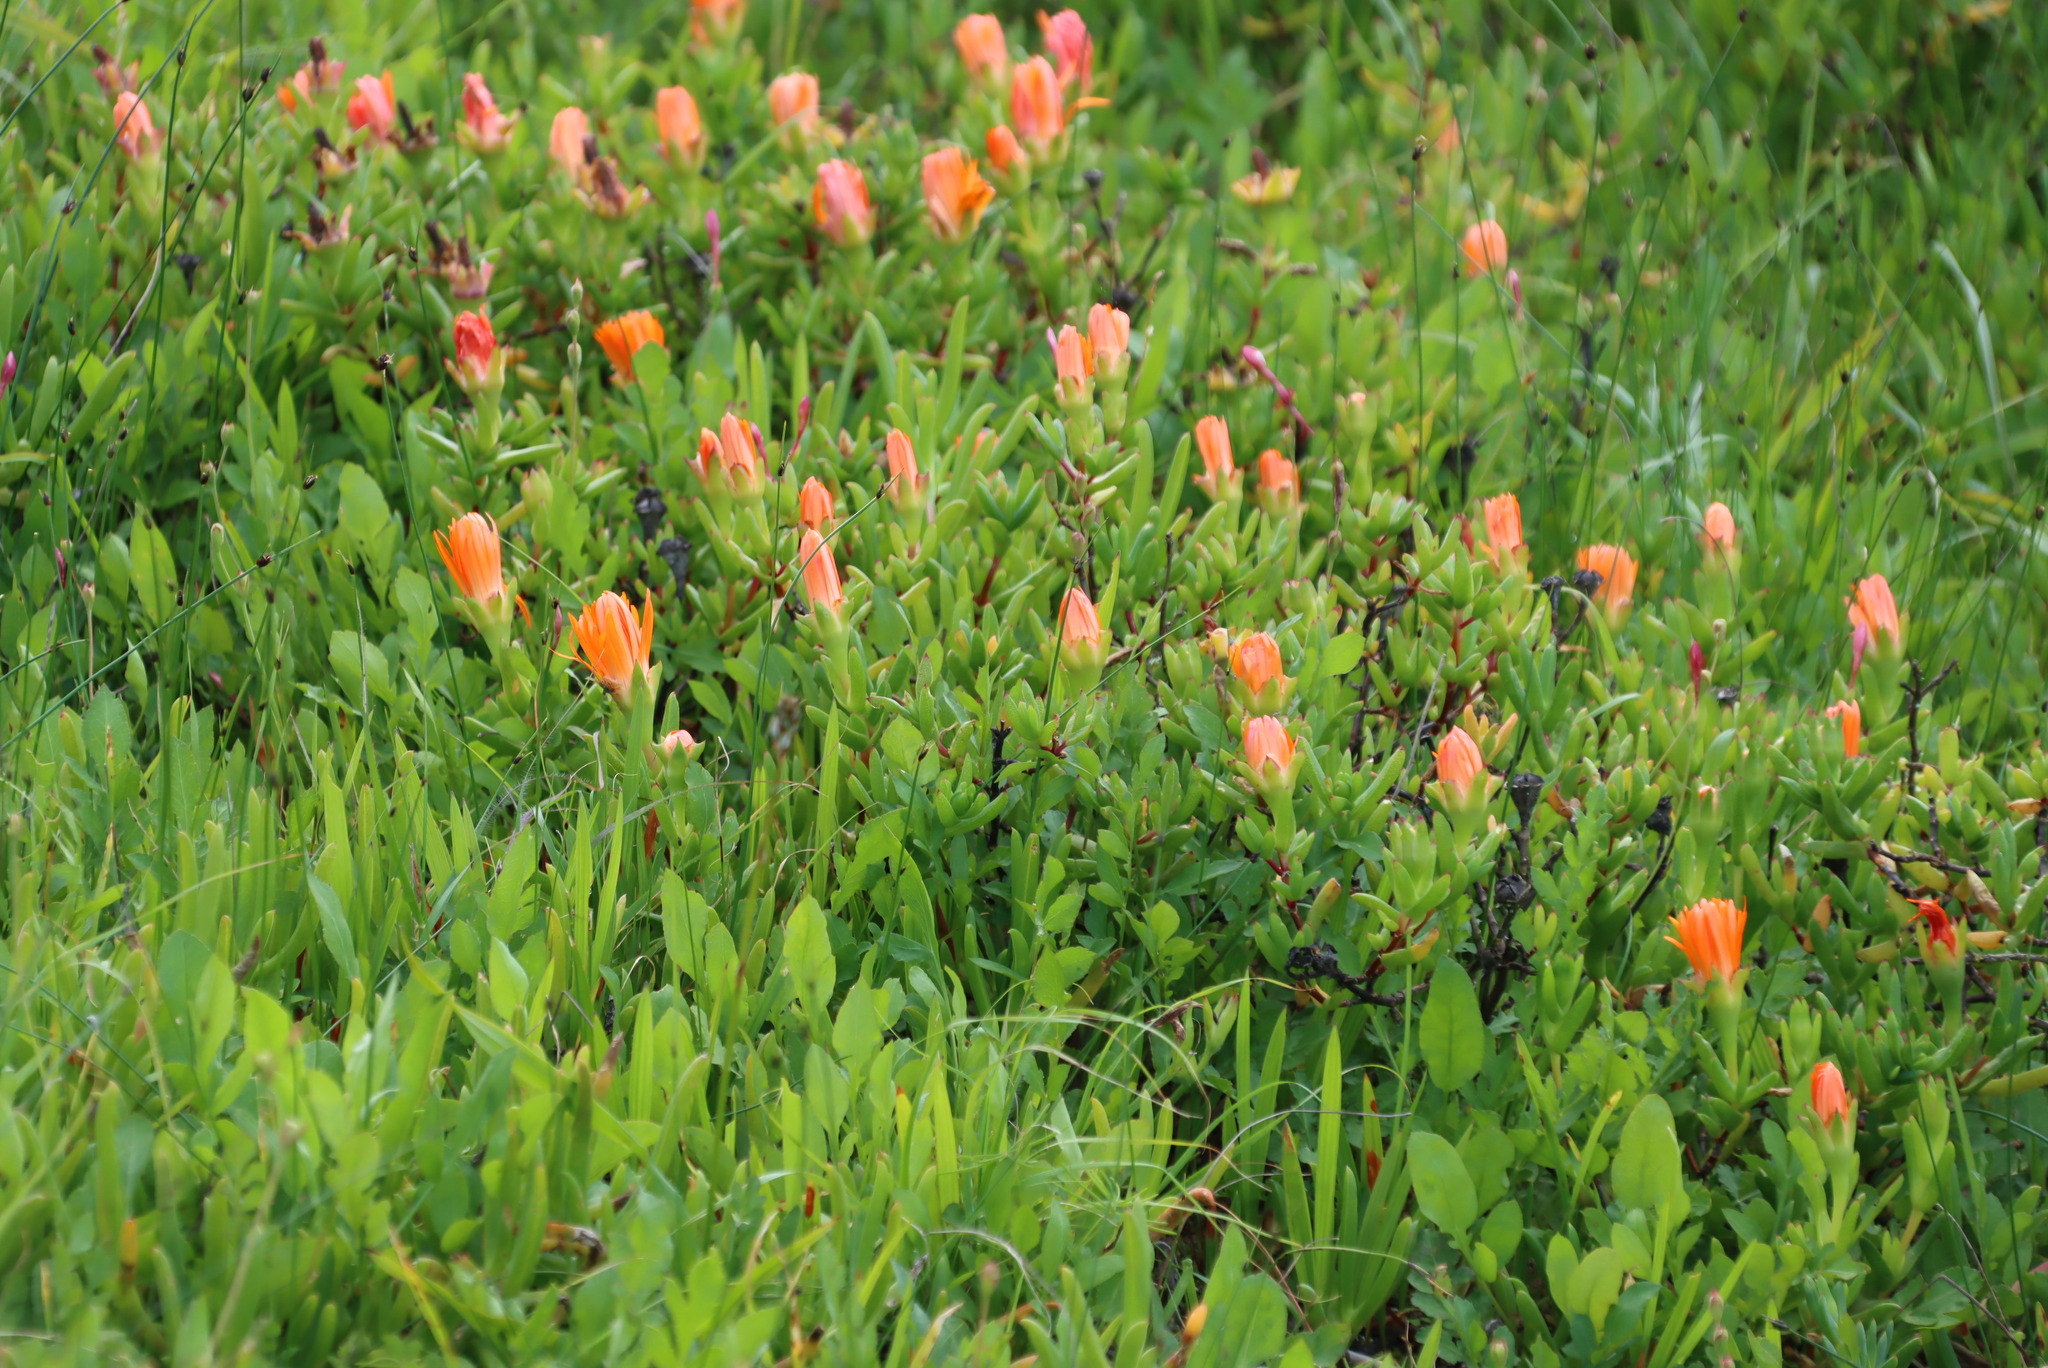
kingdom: Plantae
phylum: Tracheophyta
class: Magnoliopsida
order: Caryophyllales
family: Aizoaceae
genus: Lampranthus
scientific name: Lampranthus aureus
